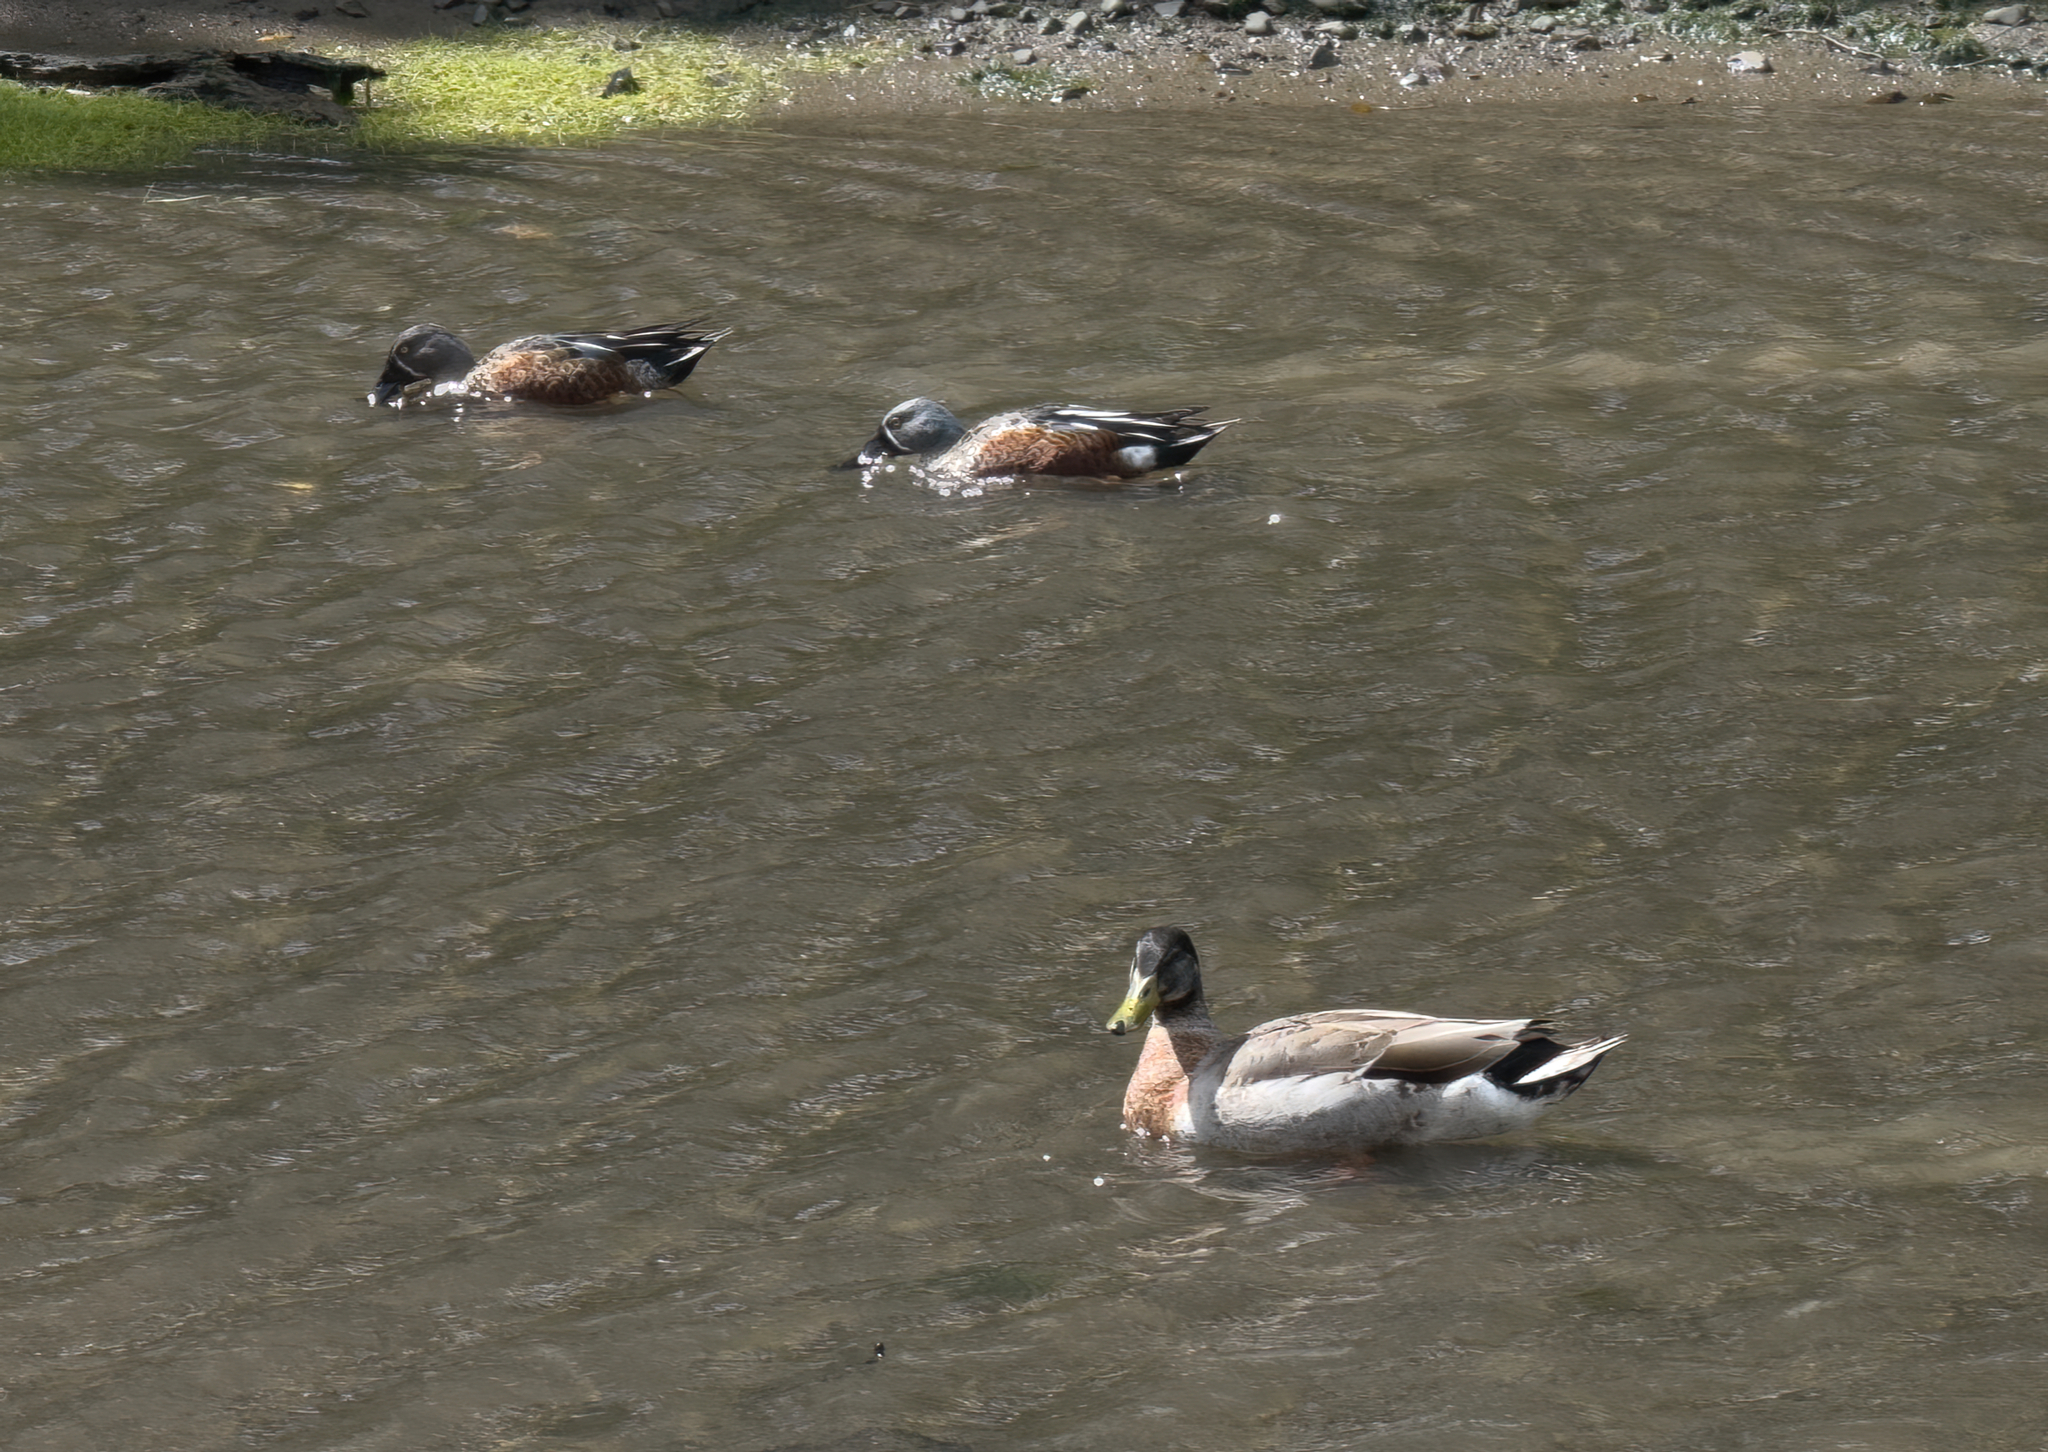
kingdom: Animalia
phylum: Chordata
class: Aves
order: Anseriformes
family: Anatidae
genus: Spatula
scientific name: Spatula rhynchotis
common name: Australian shoveler
